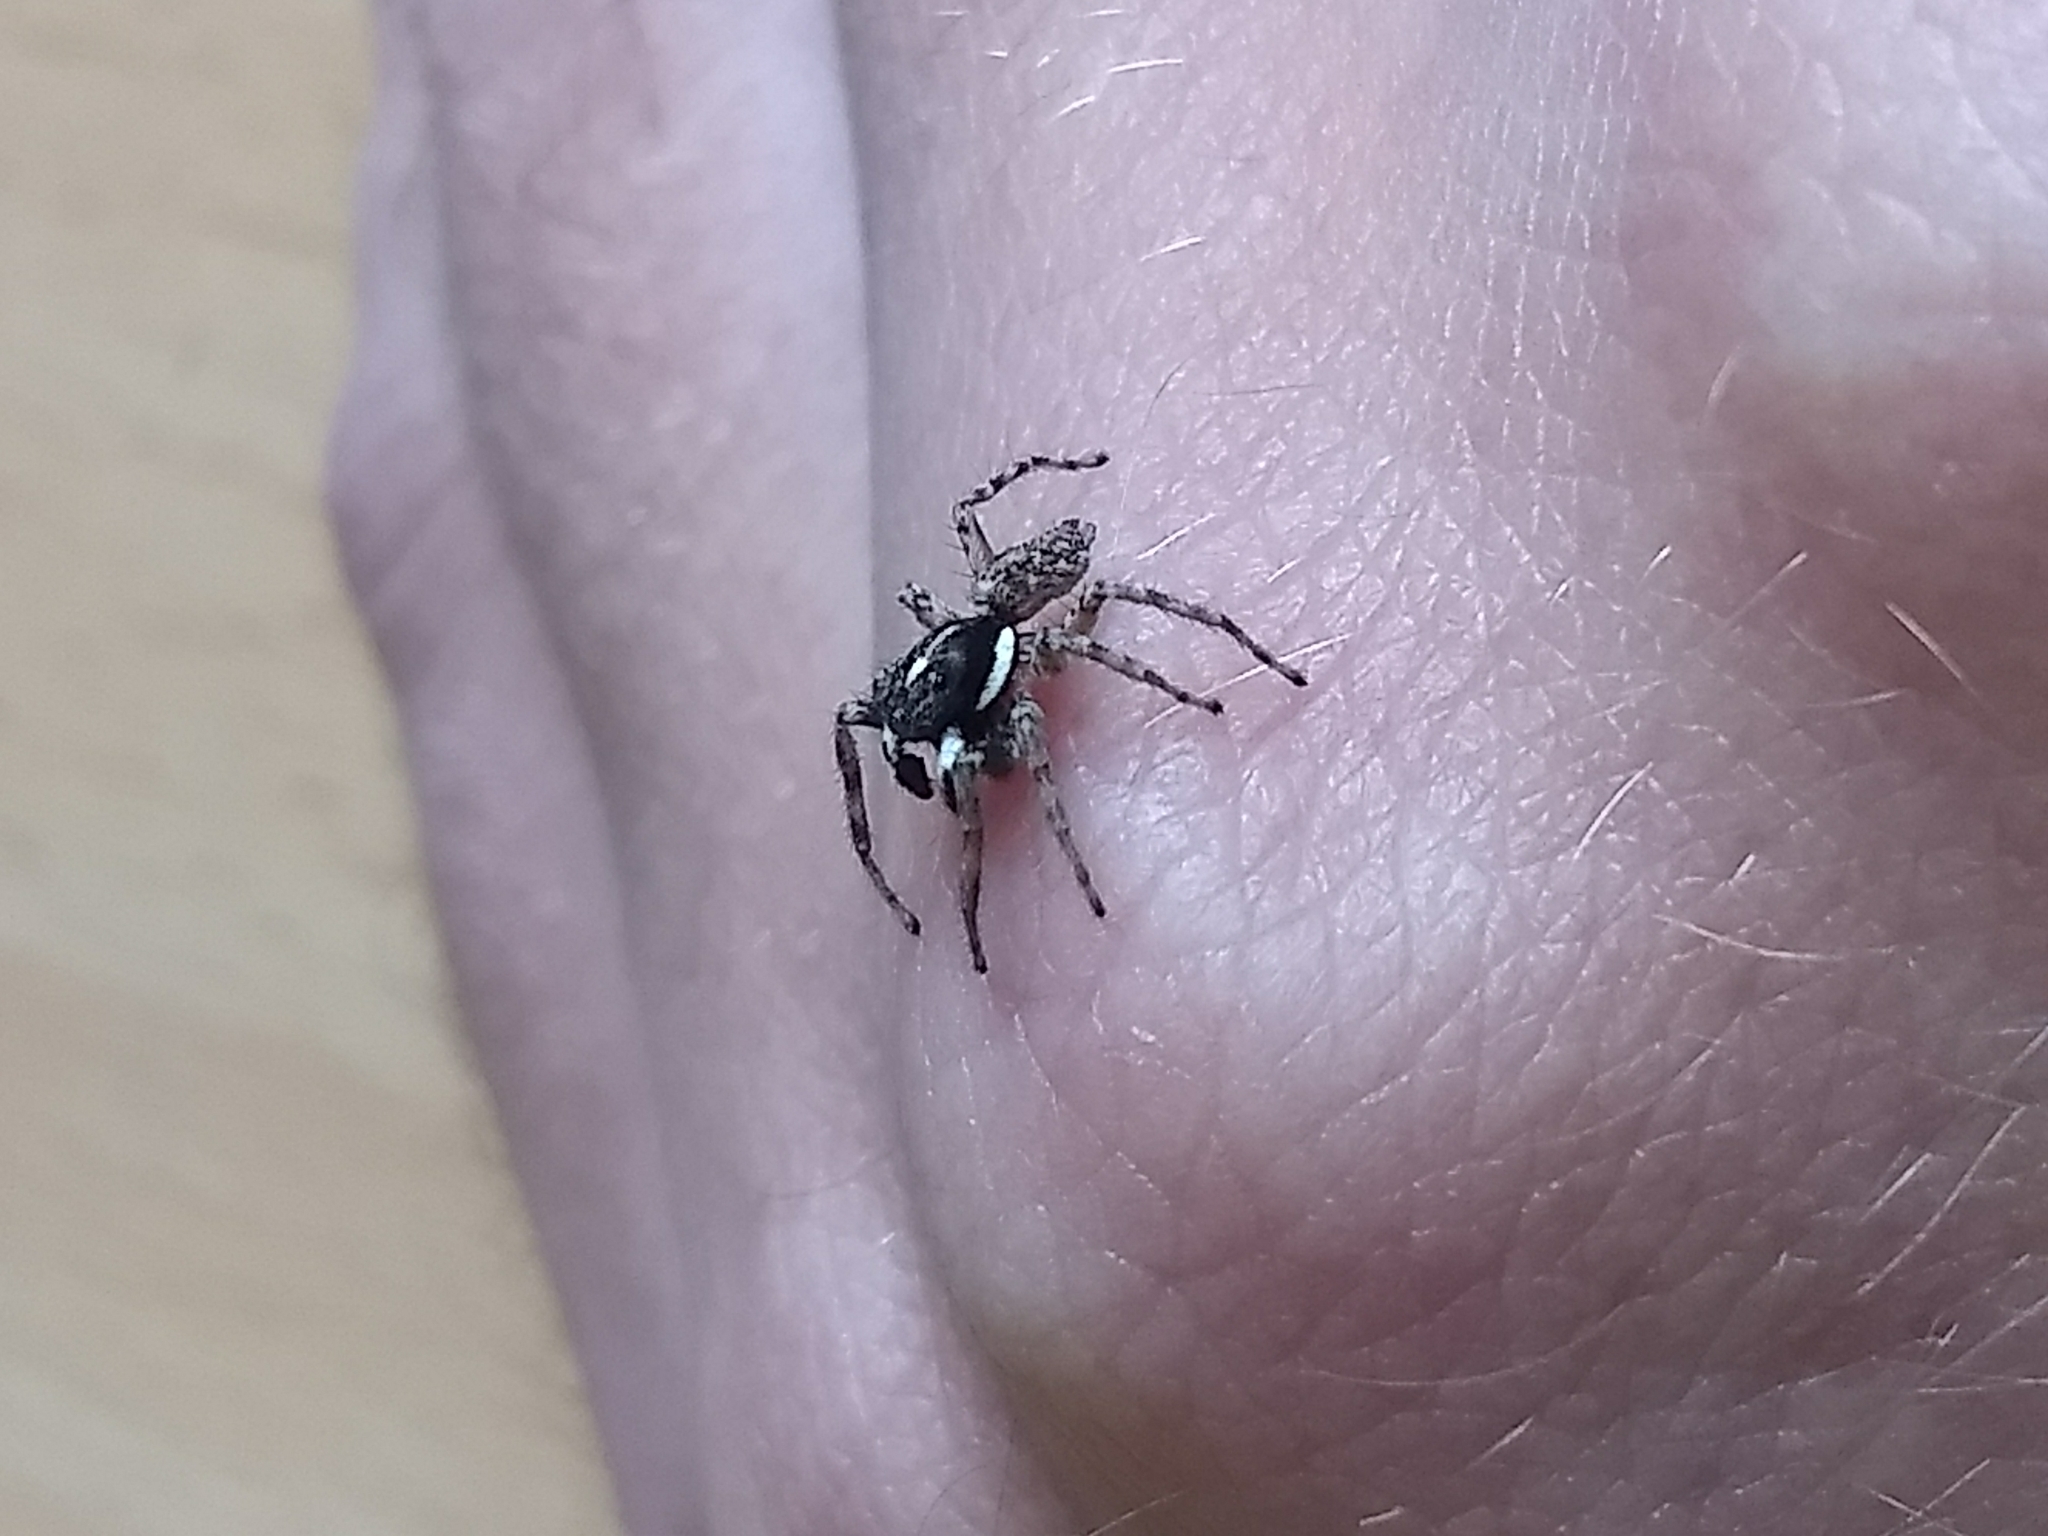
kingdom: Animalia
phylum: Arthropoda
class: Arachnida
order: Araneae
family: Salticidae
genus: Menemerus
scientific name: Menemerus semilimbatus
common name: Jumping spider
